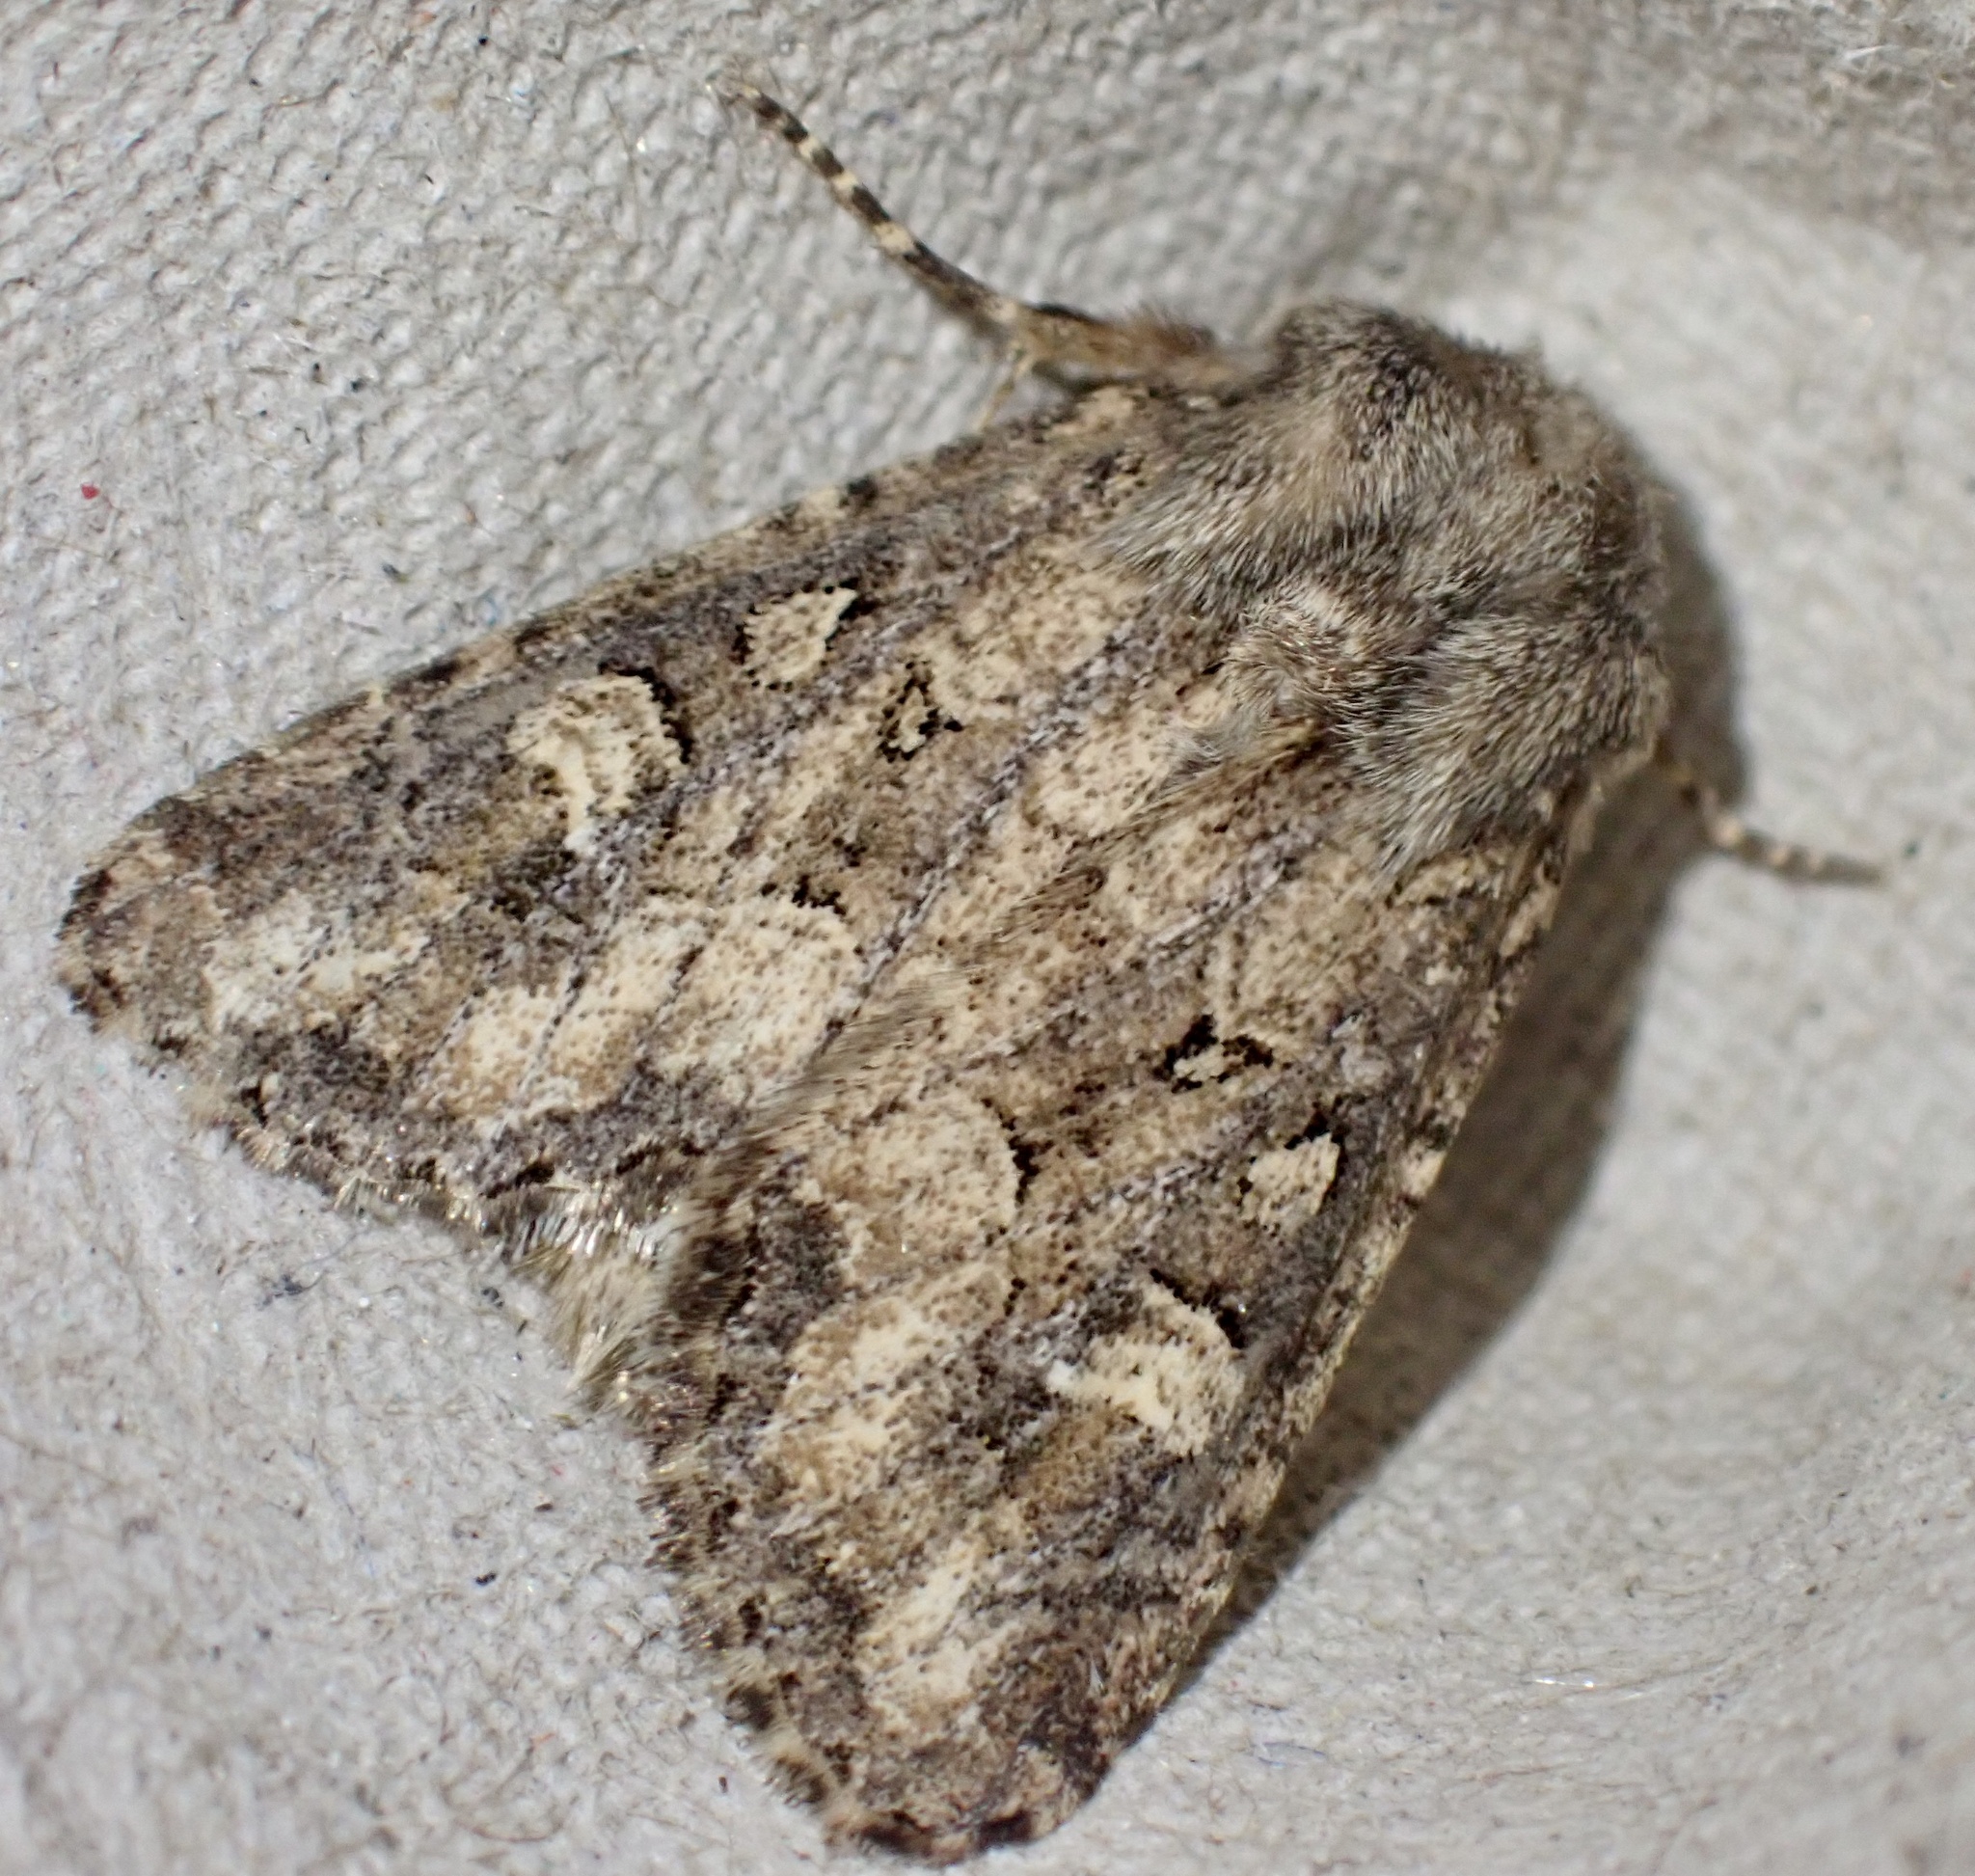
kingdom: Animalia
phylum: Arthropoda
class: Insecta
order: Lepidoptera
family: Noctuidae
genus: Luperina
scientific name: Luperina testacea
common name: Flounced rustic
